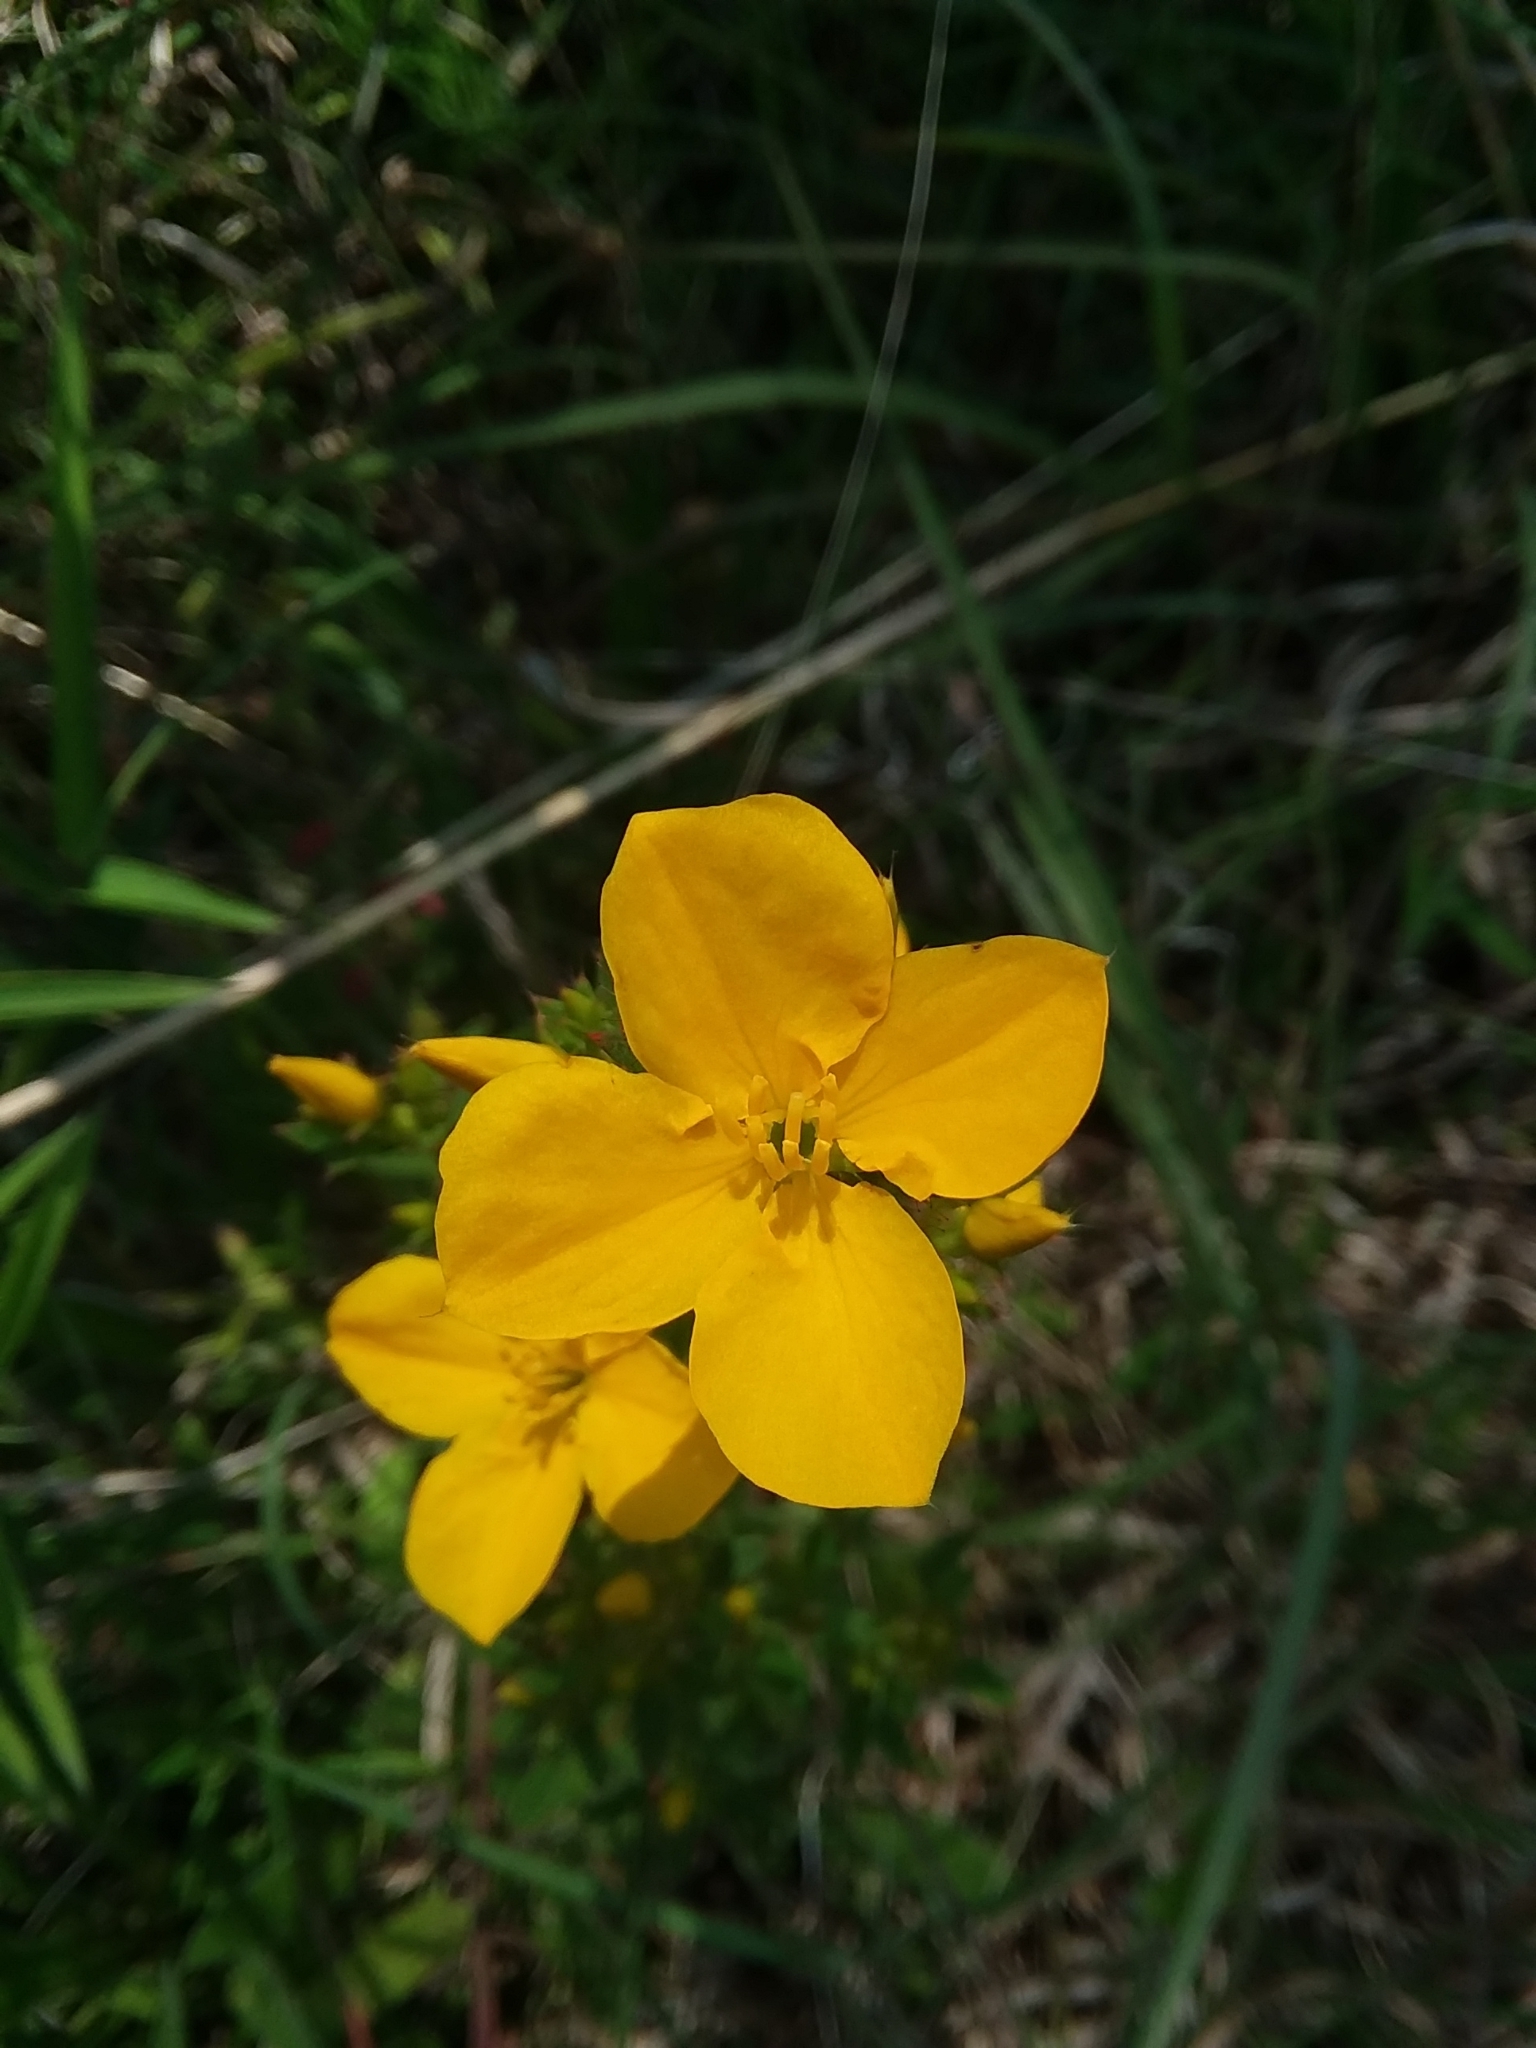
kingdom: Plantae
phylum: Tracheophyta
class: Magnoliopsida
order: Myrtales
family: Melastomataceae
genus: Rhexia
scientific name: Rhexia lutea
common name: Golden meadow-beauty
